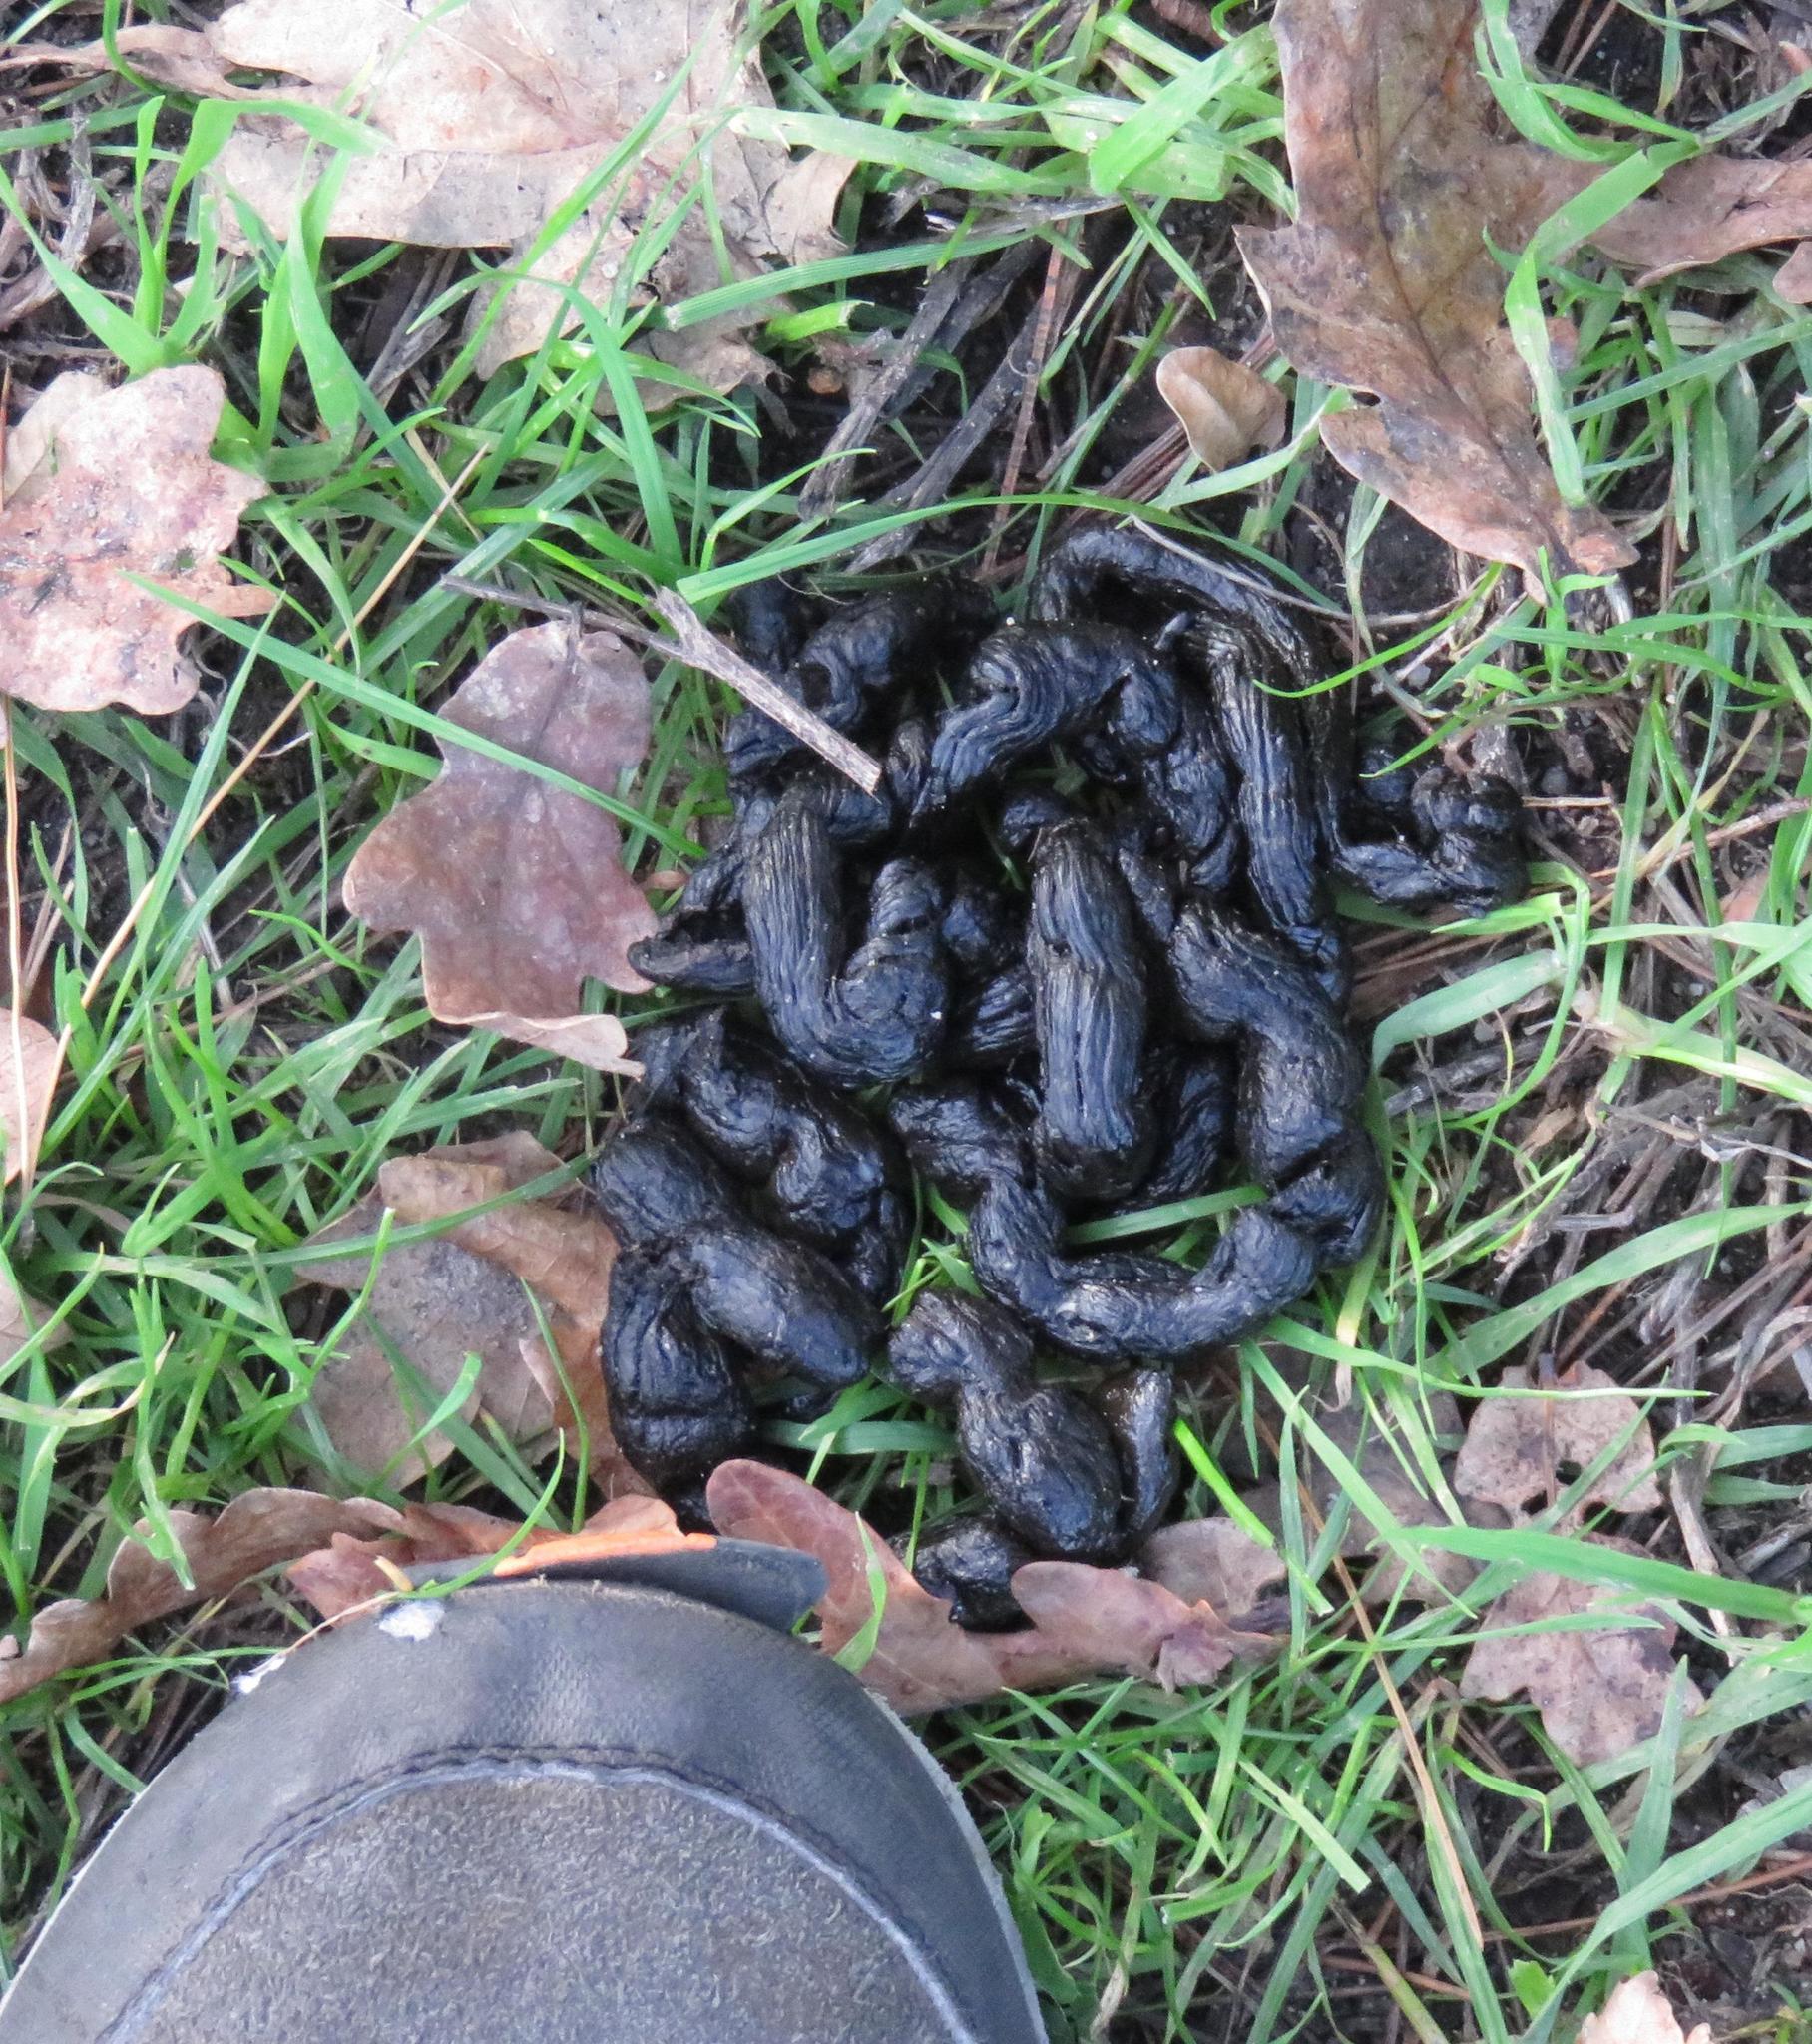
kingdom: Animalia
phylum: Chordata
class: Mammalia
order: Rodentia
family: Hystricidae
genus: Hystrix
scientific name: Hystrix africaeaustralis
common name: Cape porcupine
